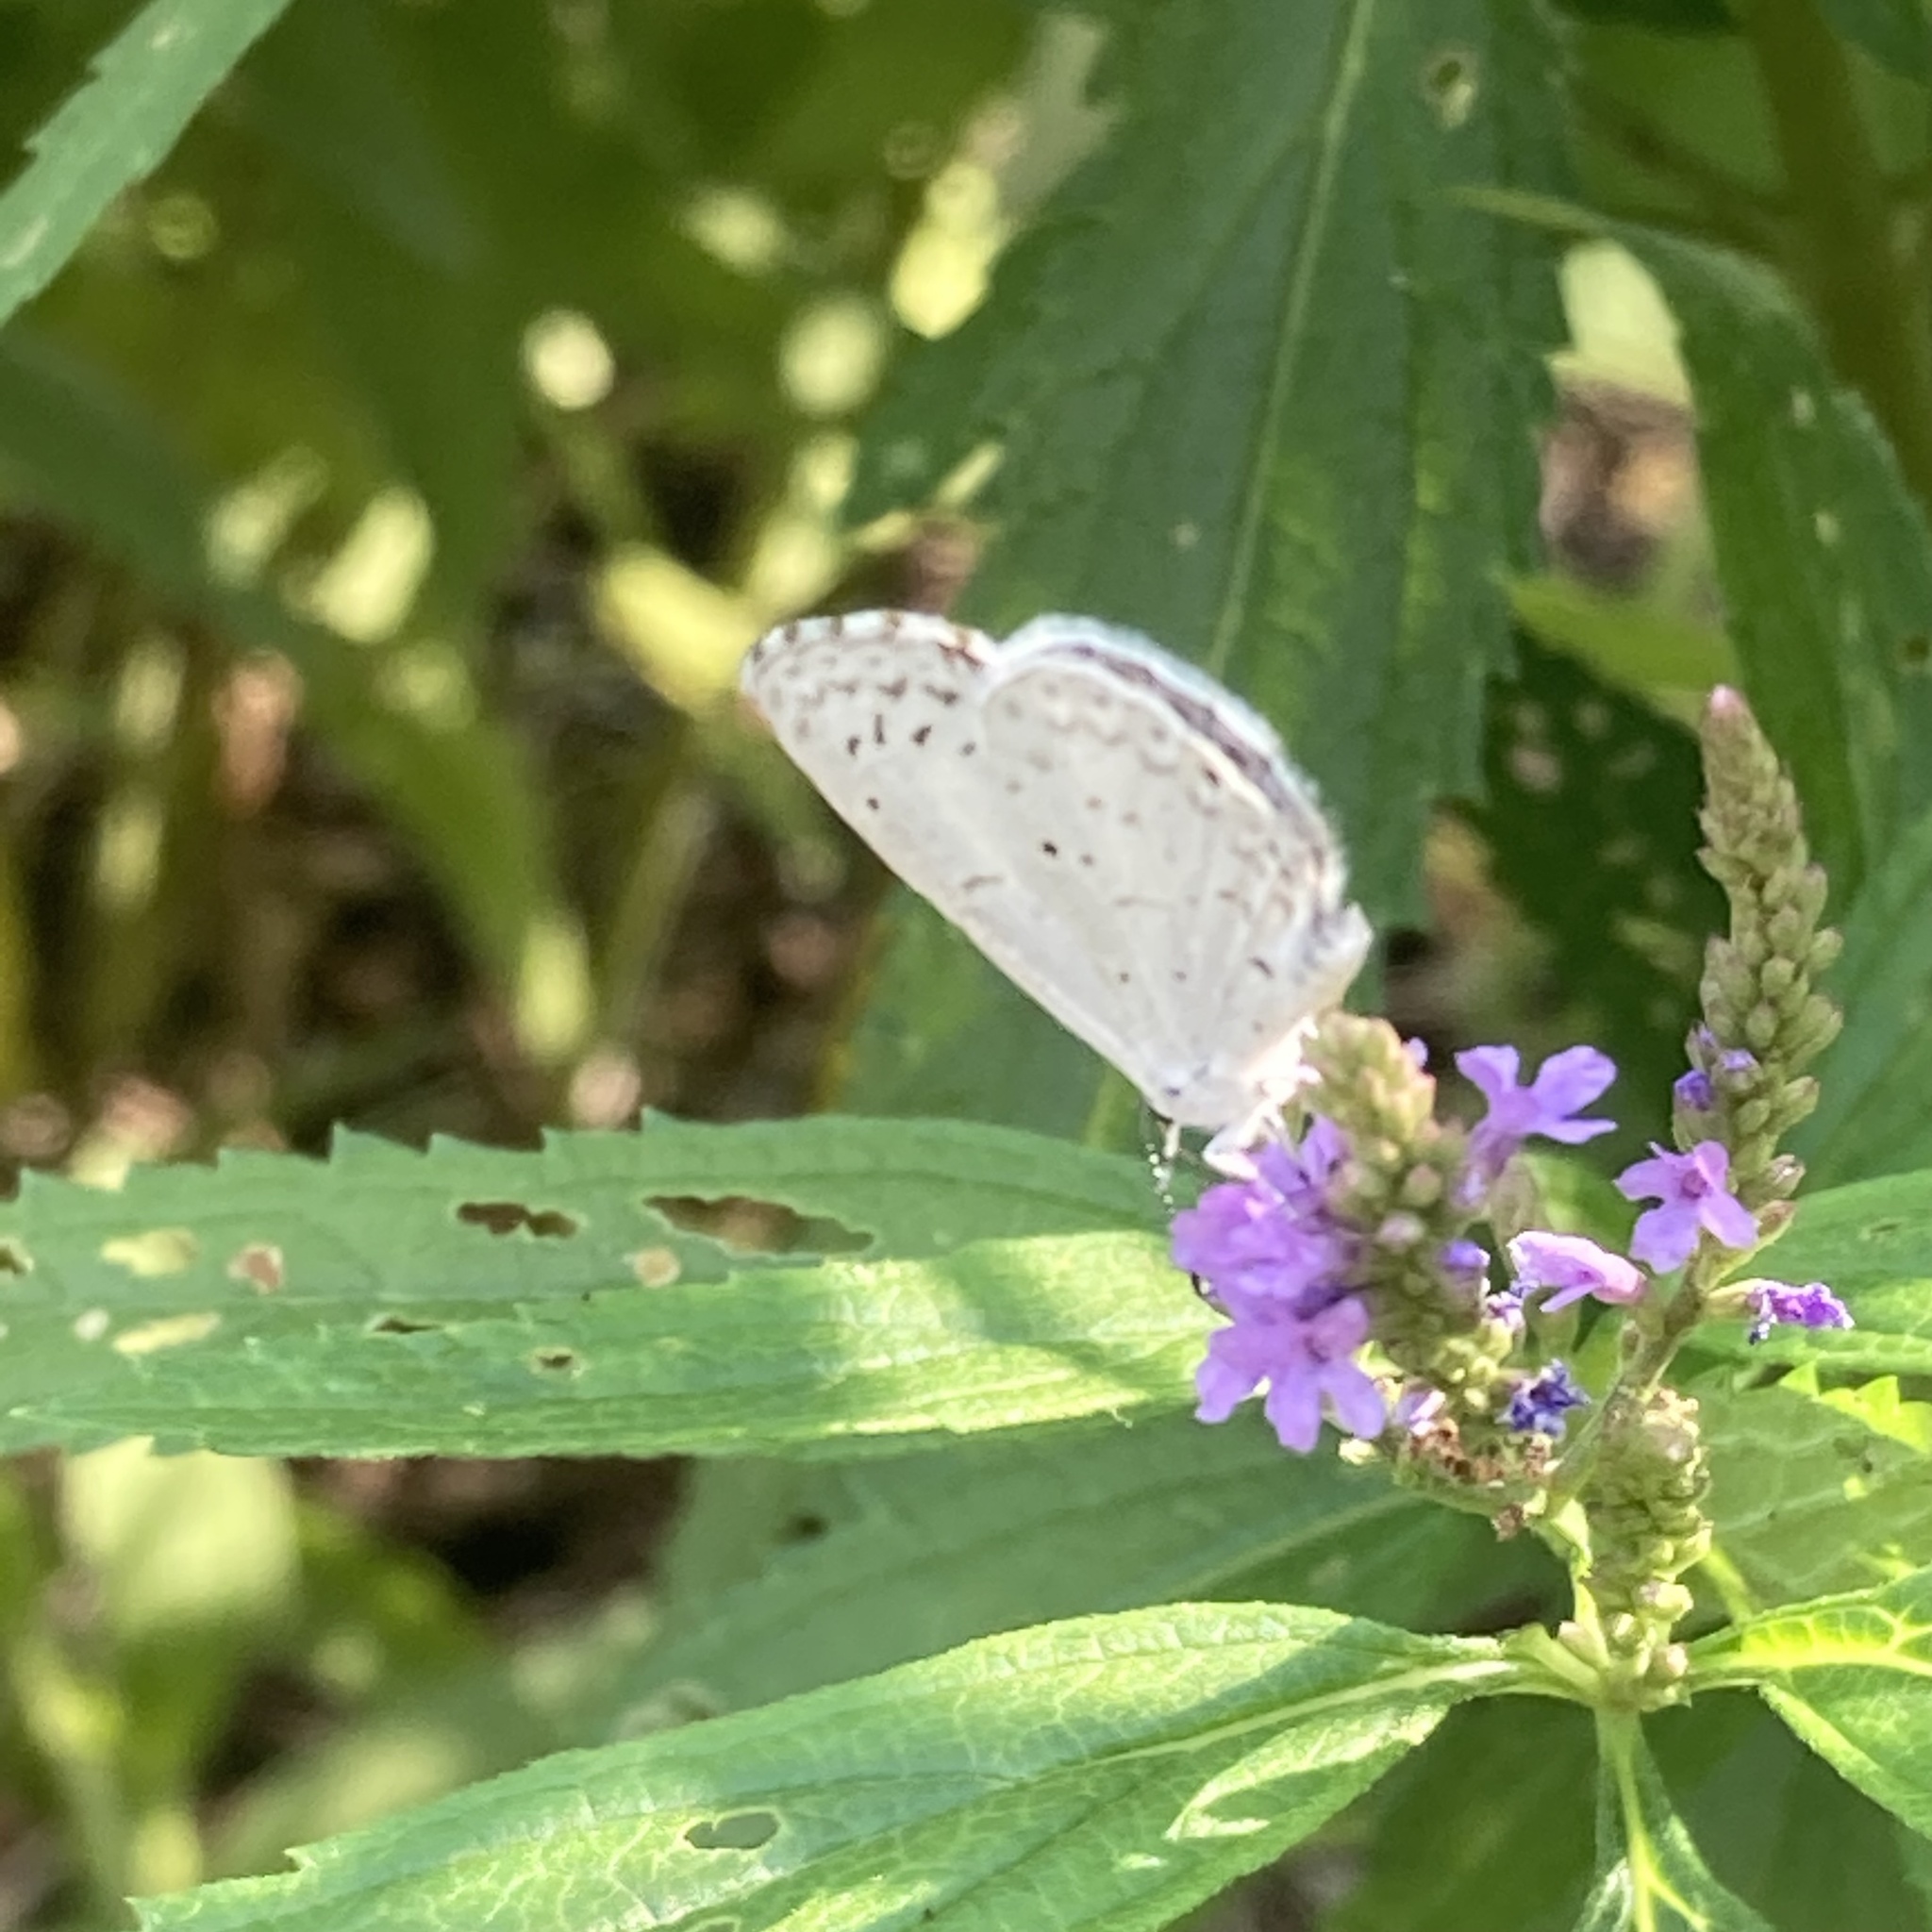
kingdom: Animalia
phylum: Arthropoda
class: Insecta
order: Lepidoptera
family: Lycaenidae
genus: Cyaniris
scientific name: Cyaniris neglecta
